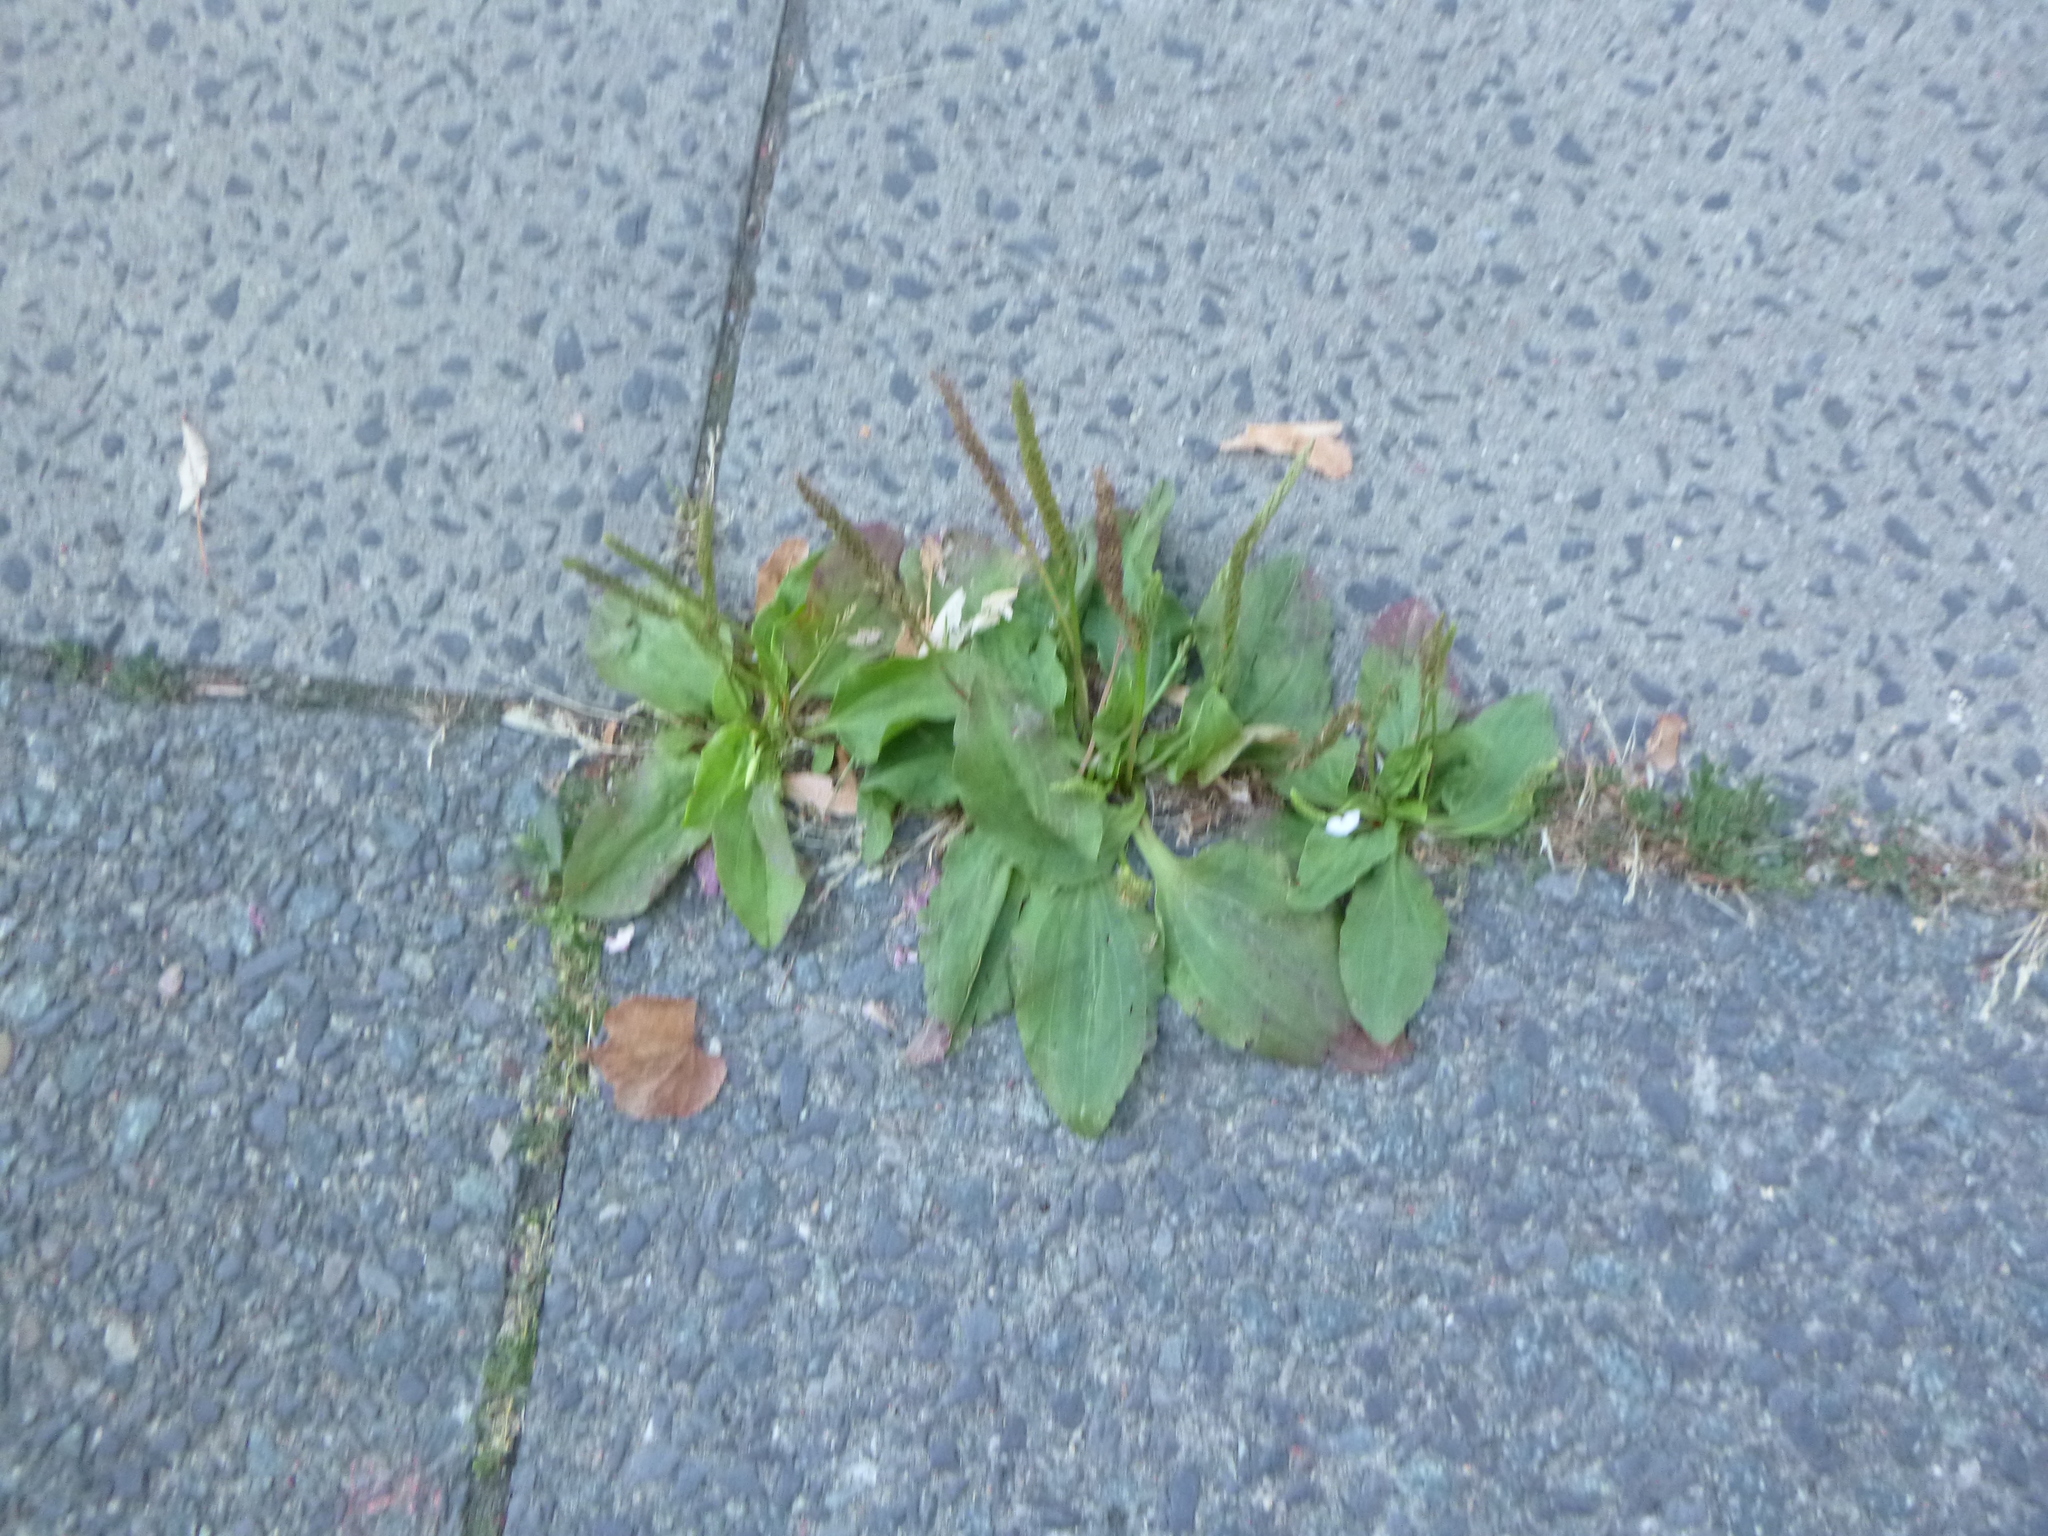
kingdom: Plantae
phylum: Tracheophyta
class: Magnoliopsida
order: Lamiales
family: Plantaginaceae
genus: Plantago
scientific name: Plantago major
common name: Common plantain
